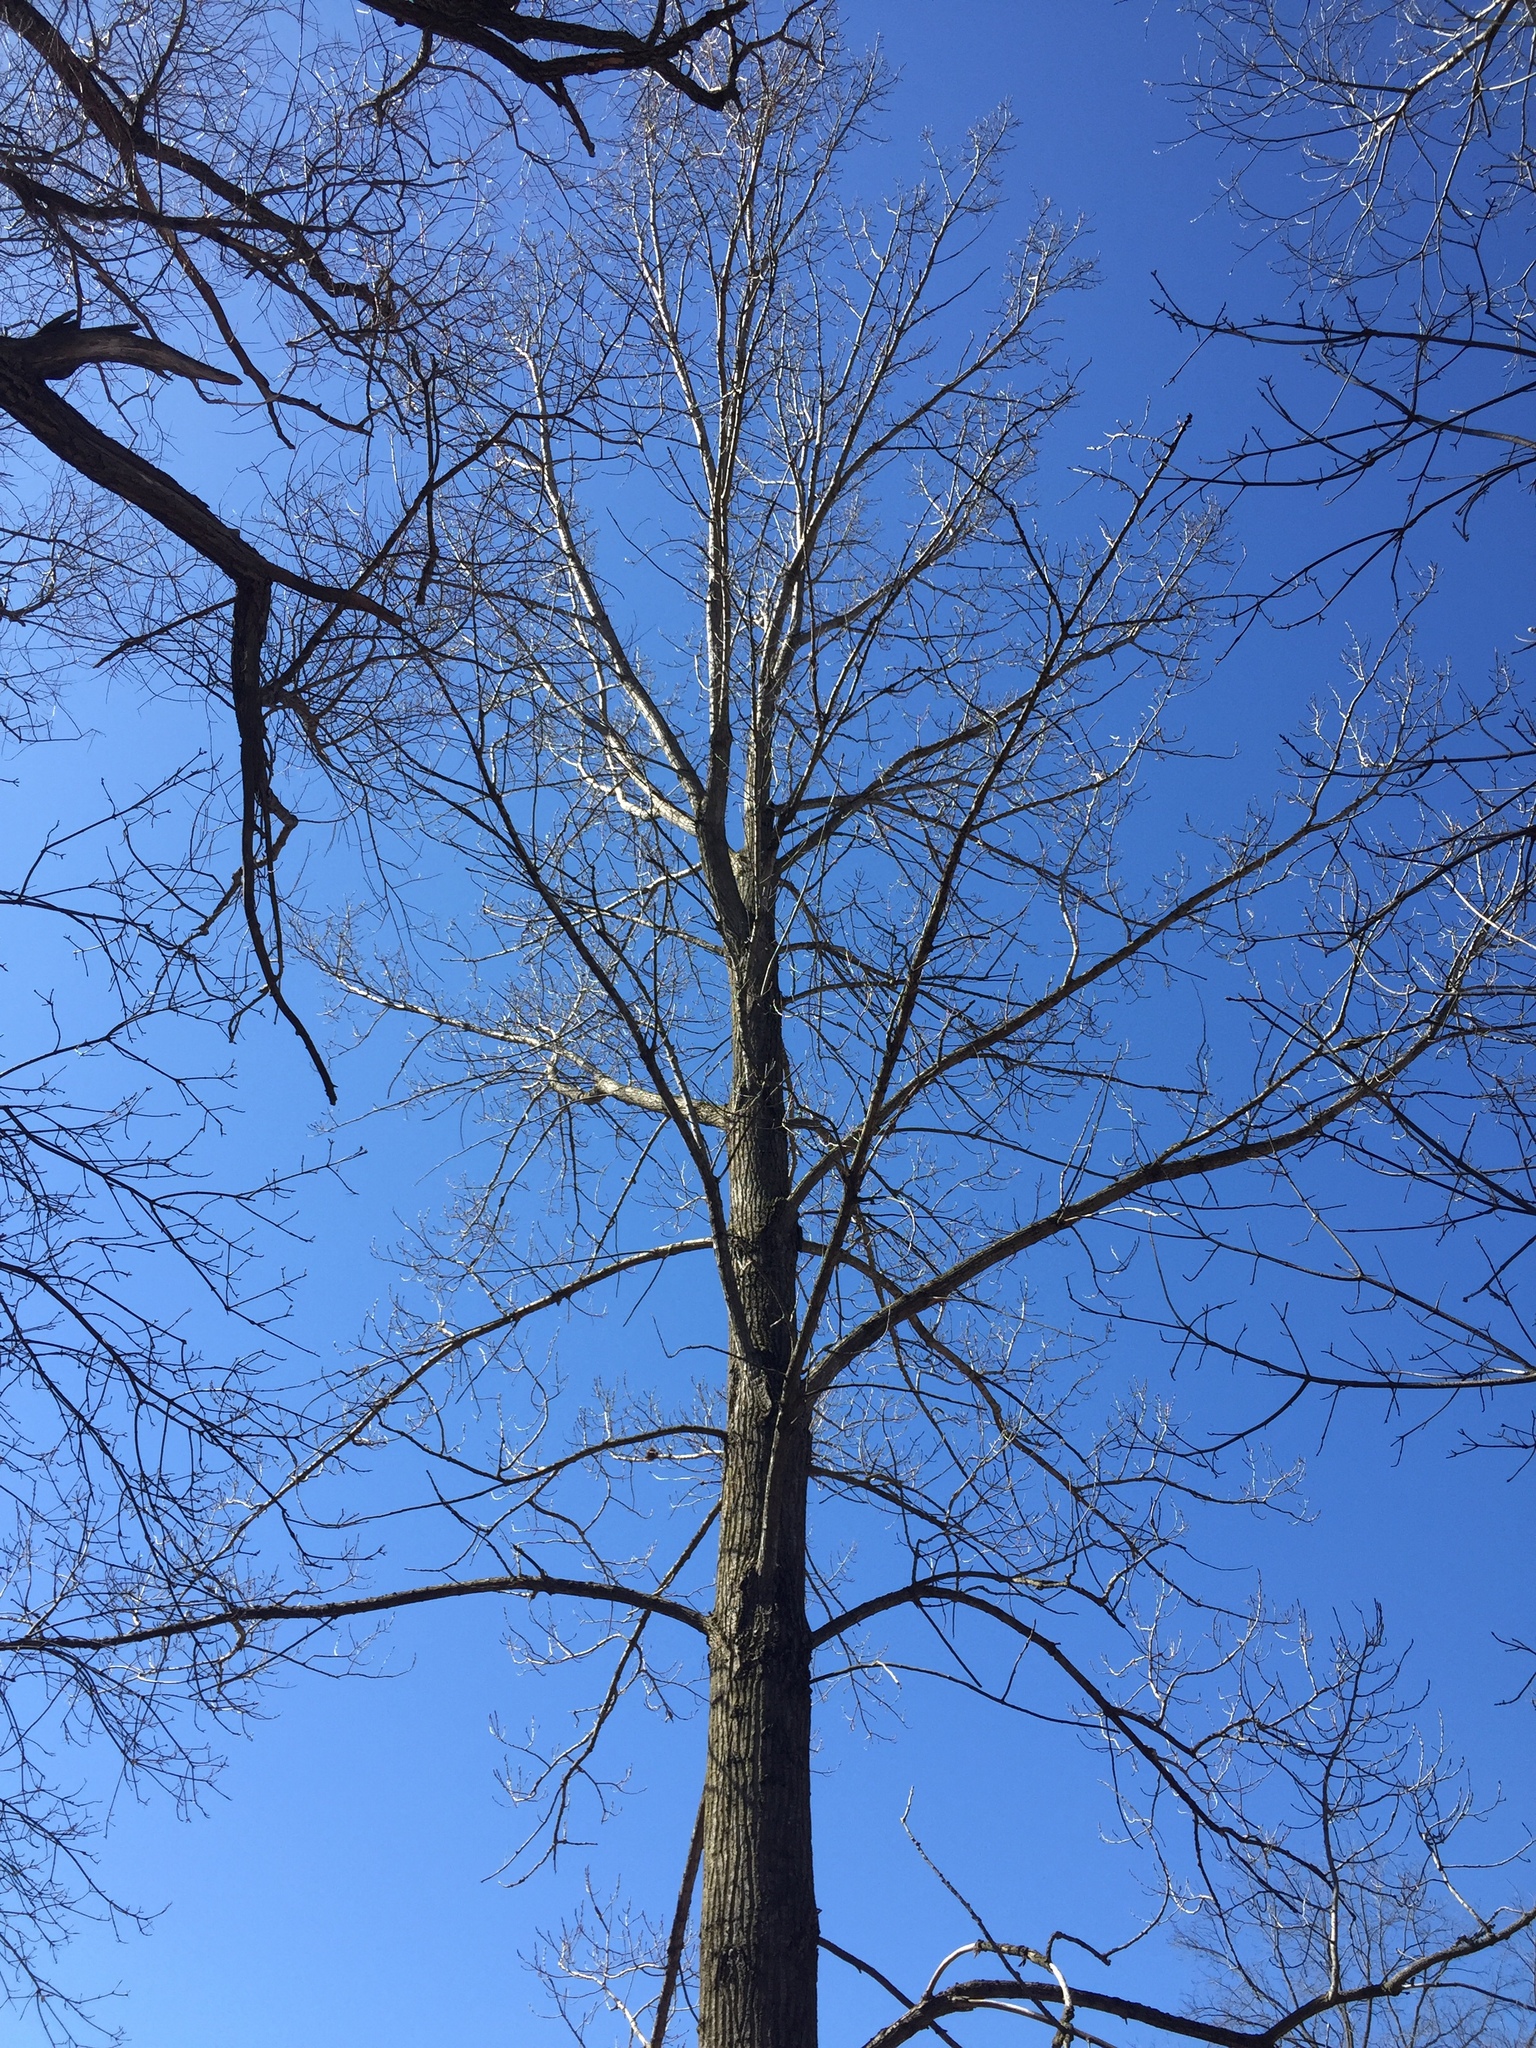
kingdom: Plantae
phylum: Tracheophyta
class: Magnoliopsida
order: Malpighiales
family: Salicaceae
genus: Populus
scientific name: Populus deltoides
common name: Eastern cottonwood
